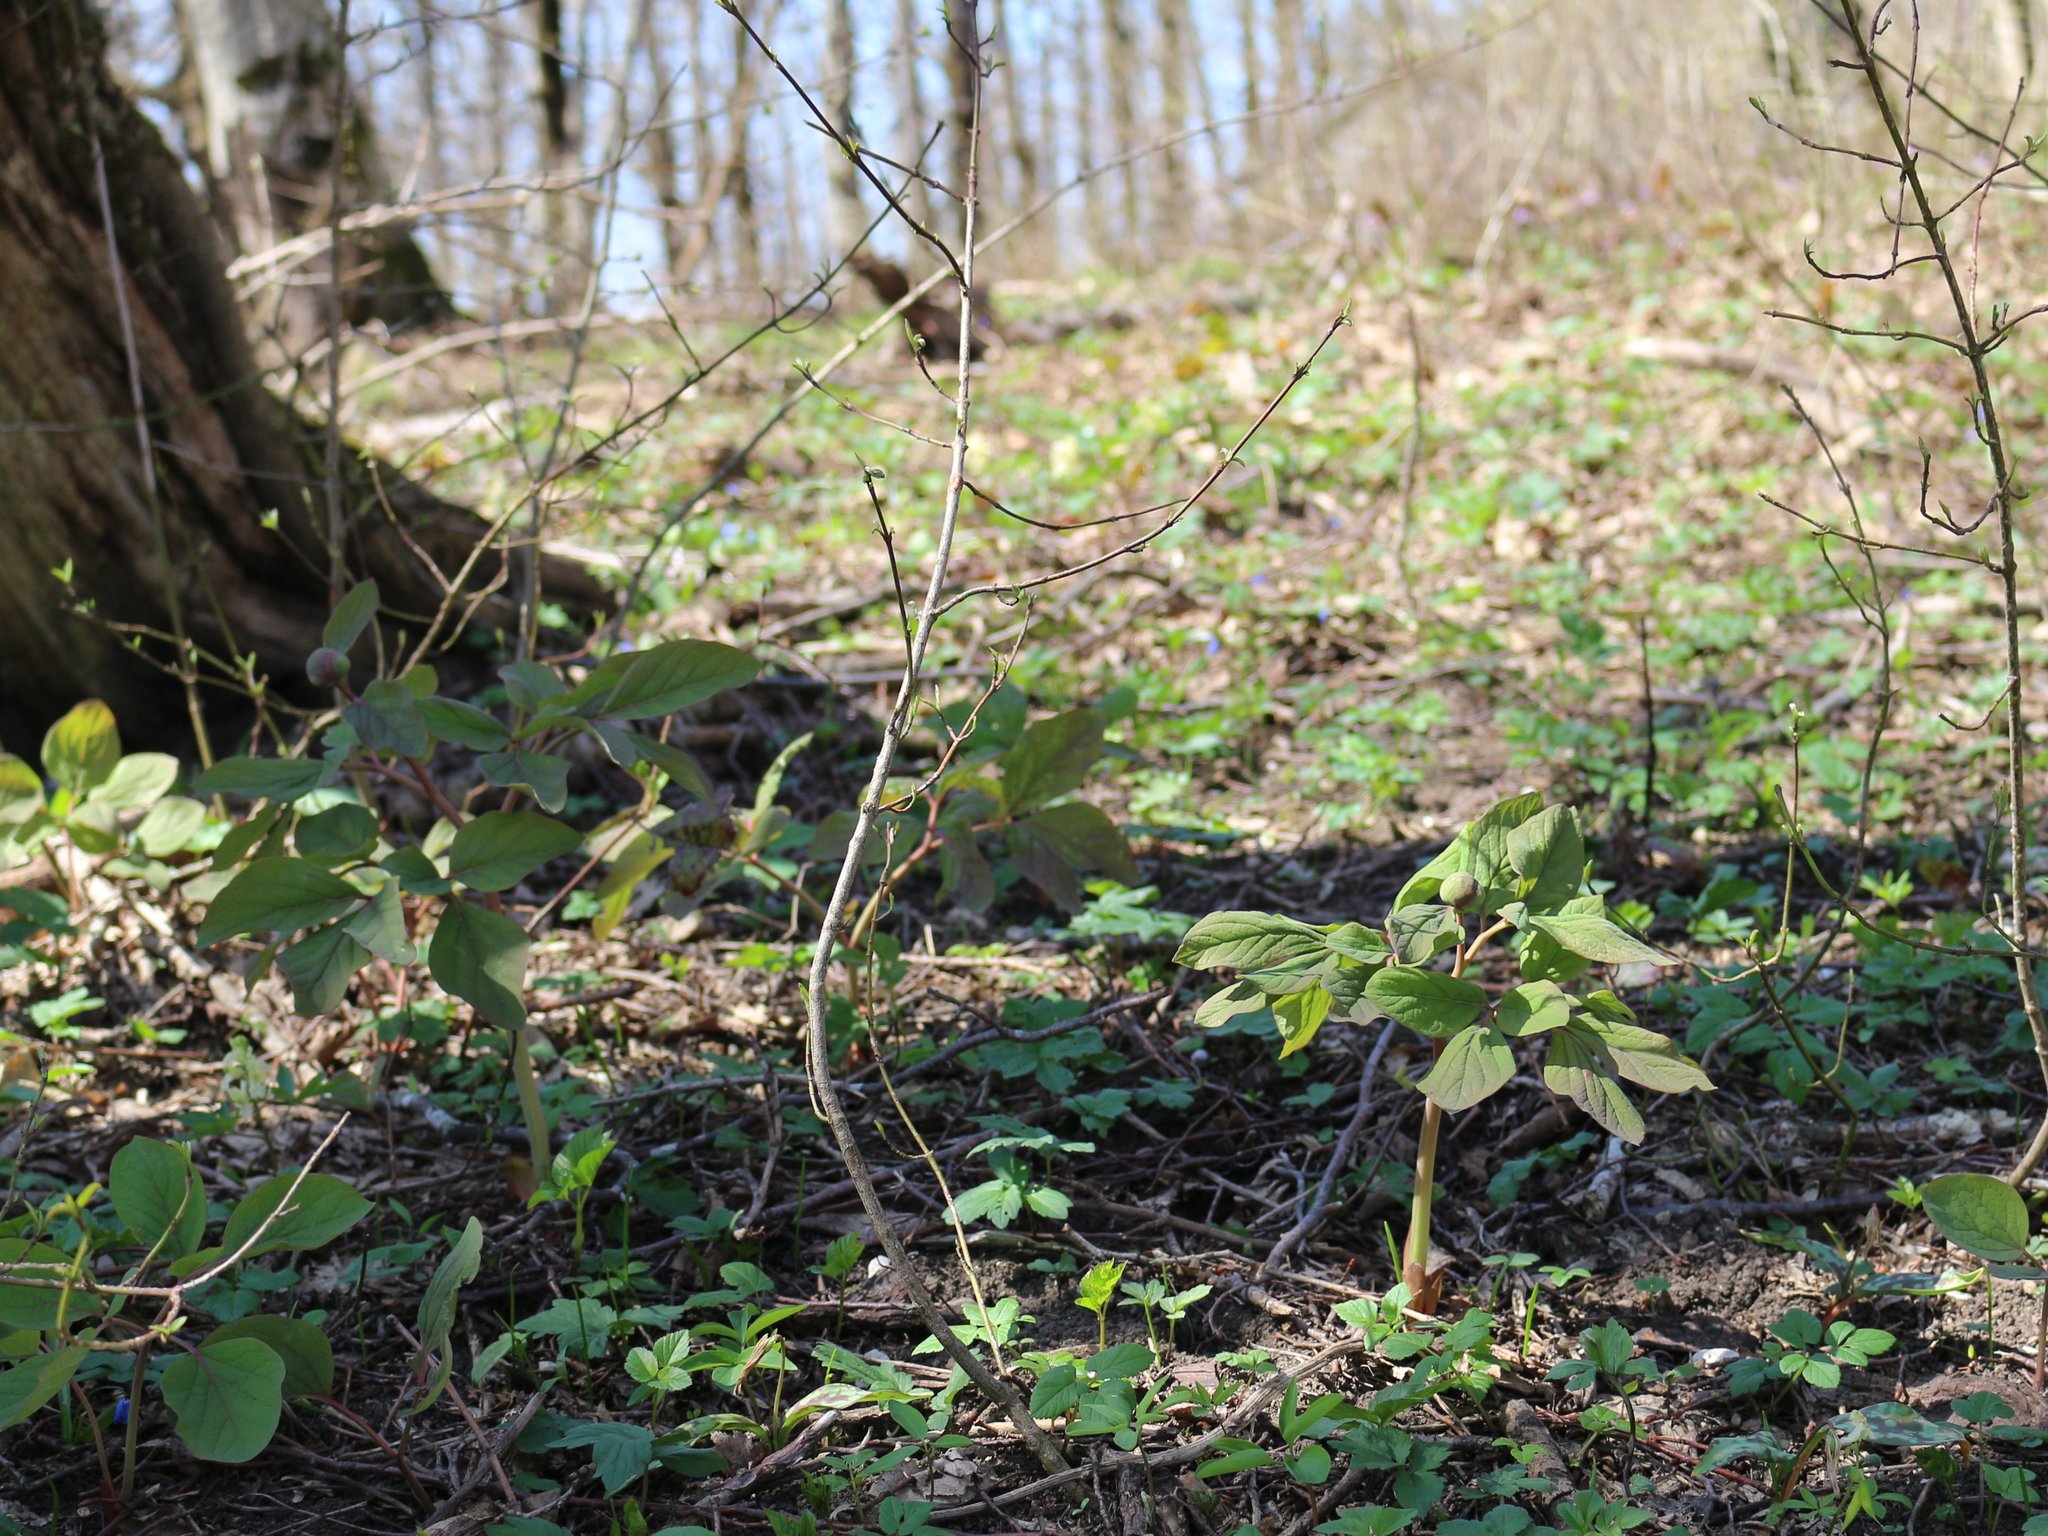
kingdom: Plantae
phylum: Tracheophyta
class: Magnoliopsida
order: Saxifragales
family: Paeoniaceae
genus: Paeonia
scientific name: Paeonia caucasica
